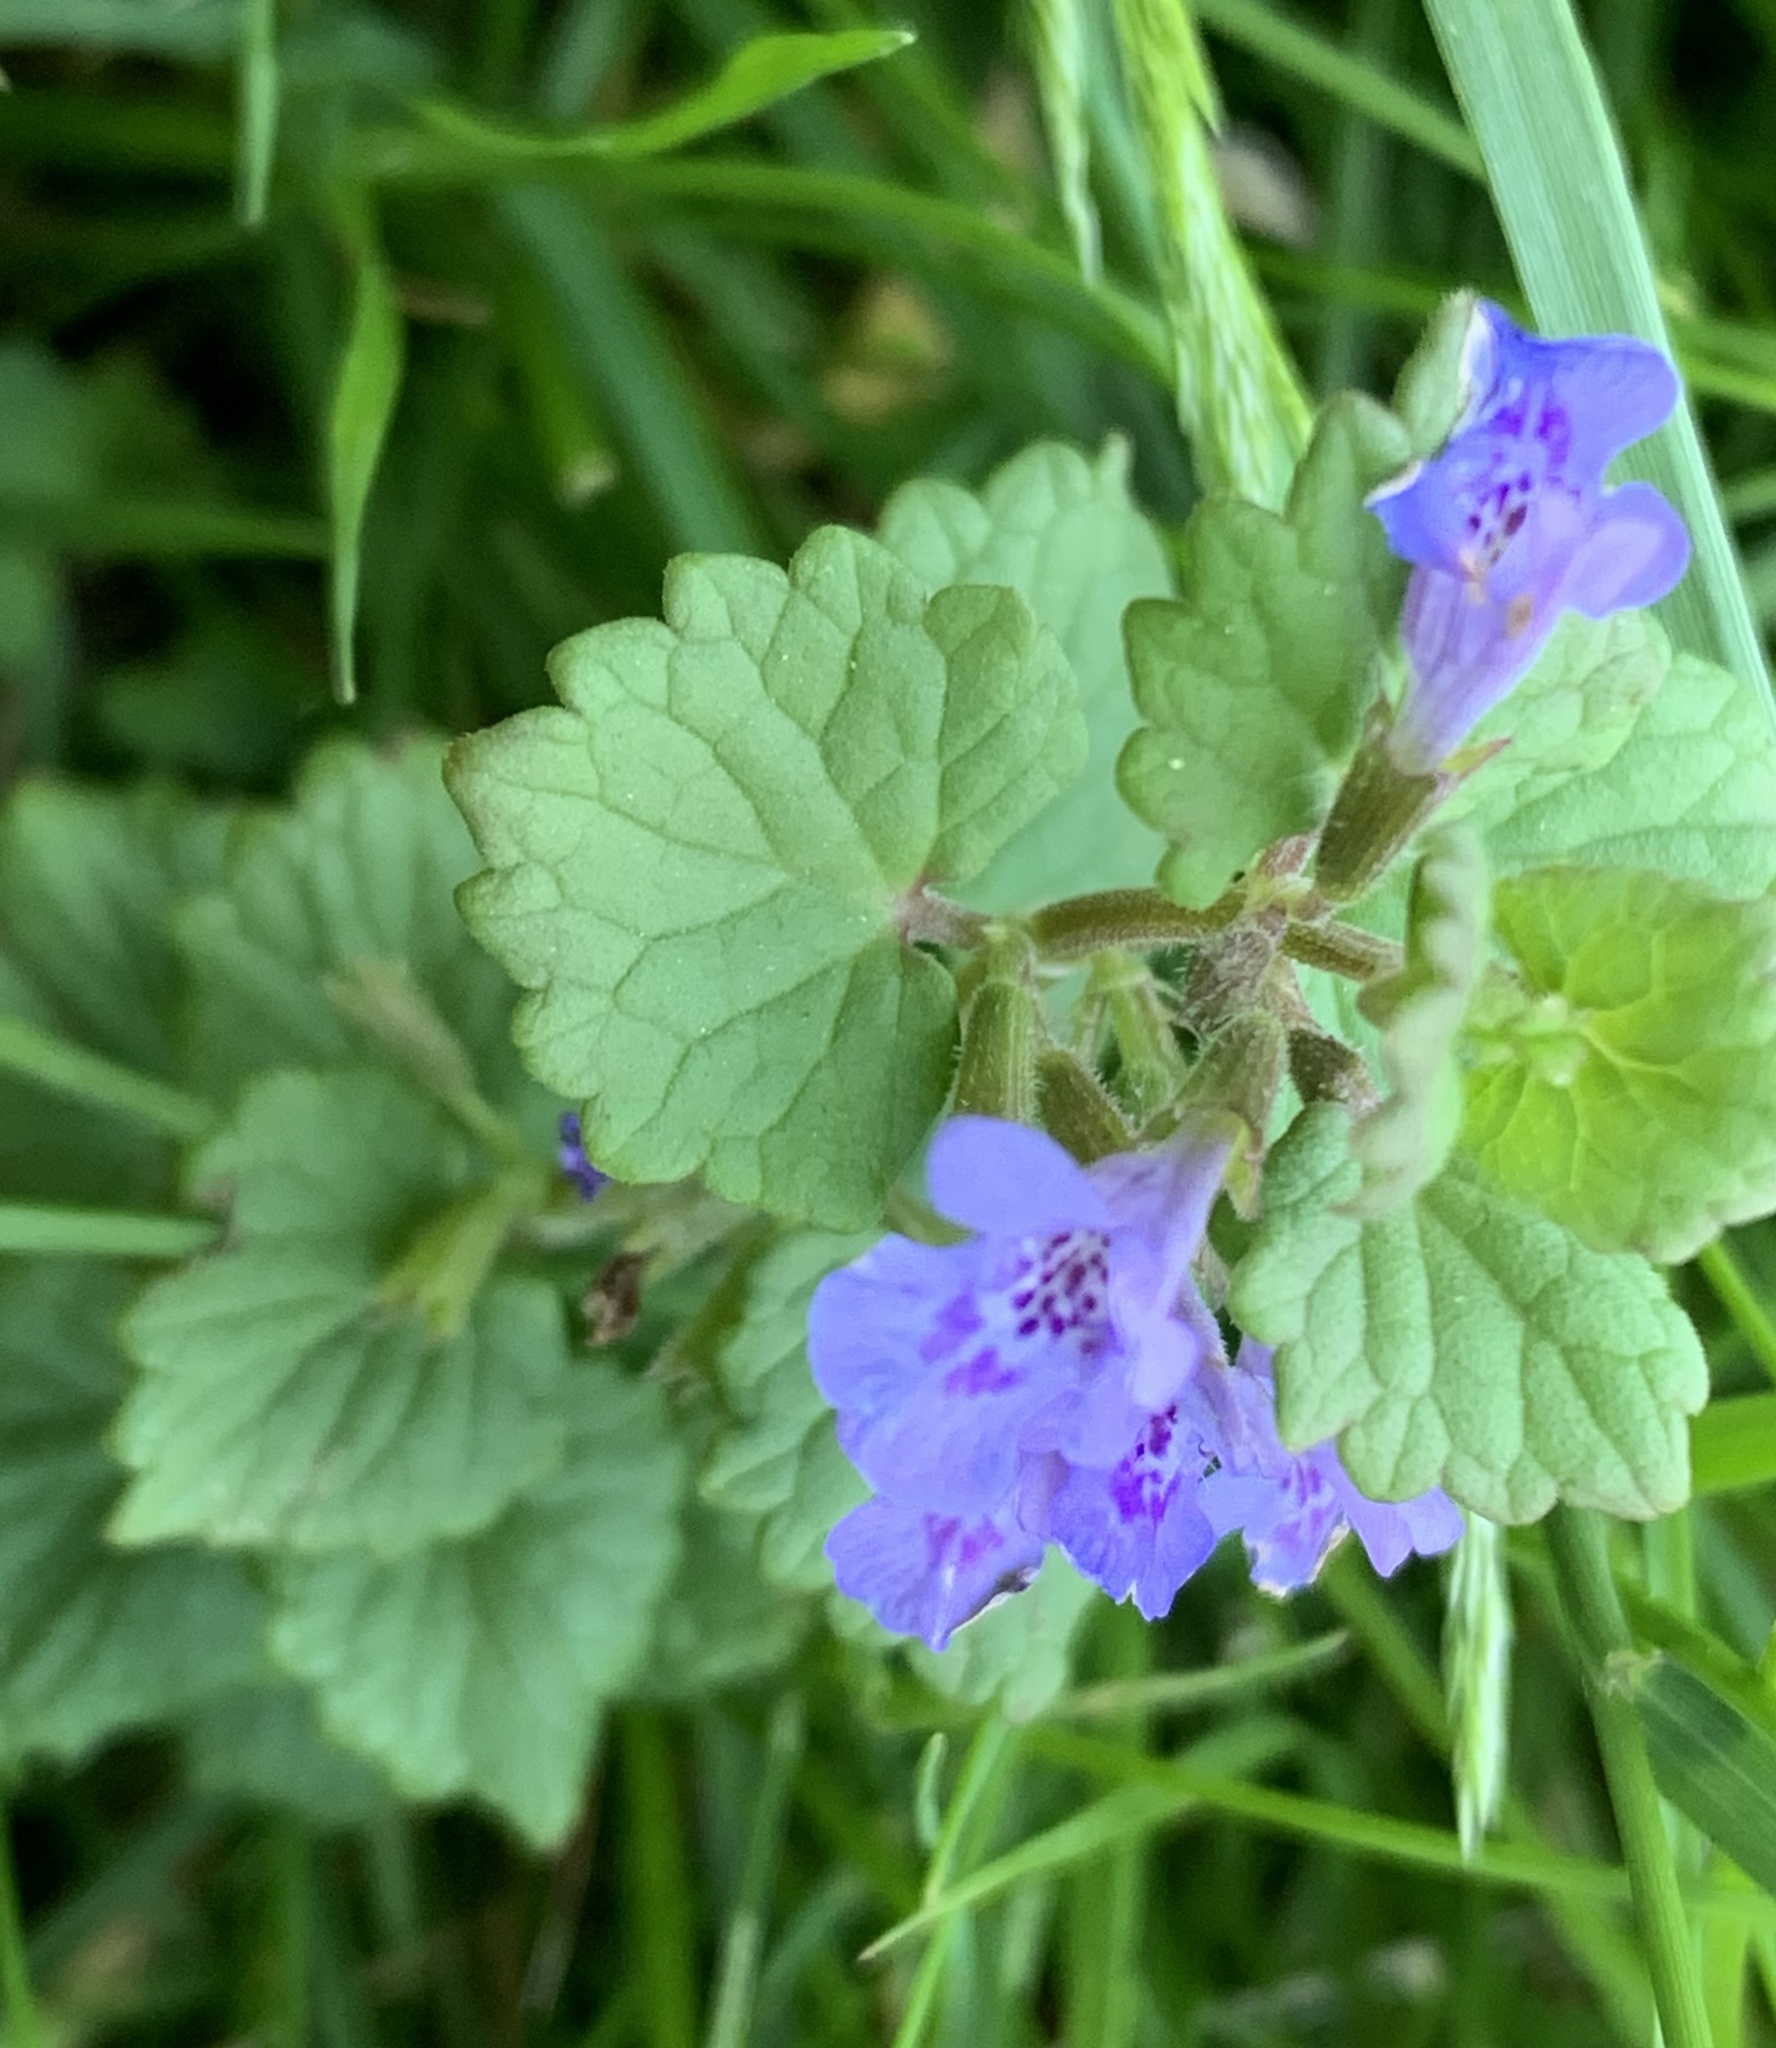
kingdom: Plantae
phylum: Tracheophyta
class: Magnoliopsida
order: Lamiales
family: Lamiaceae
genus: Glechoma
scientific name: Glechoma hederacea
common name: Ground ivy
